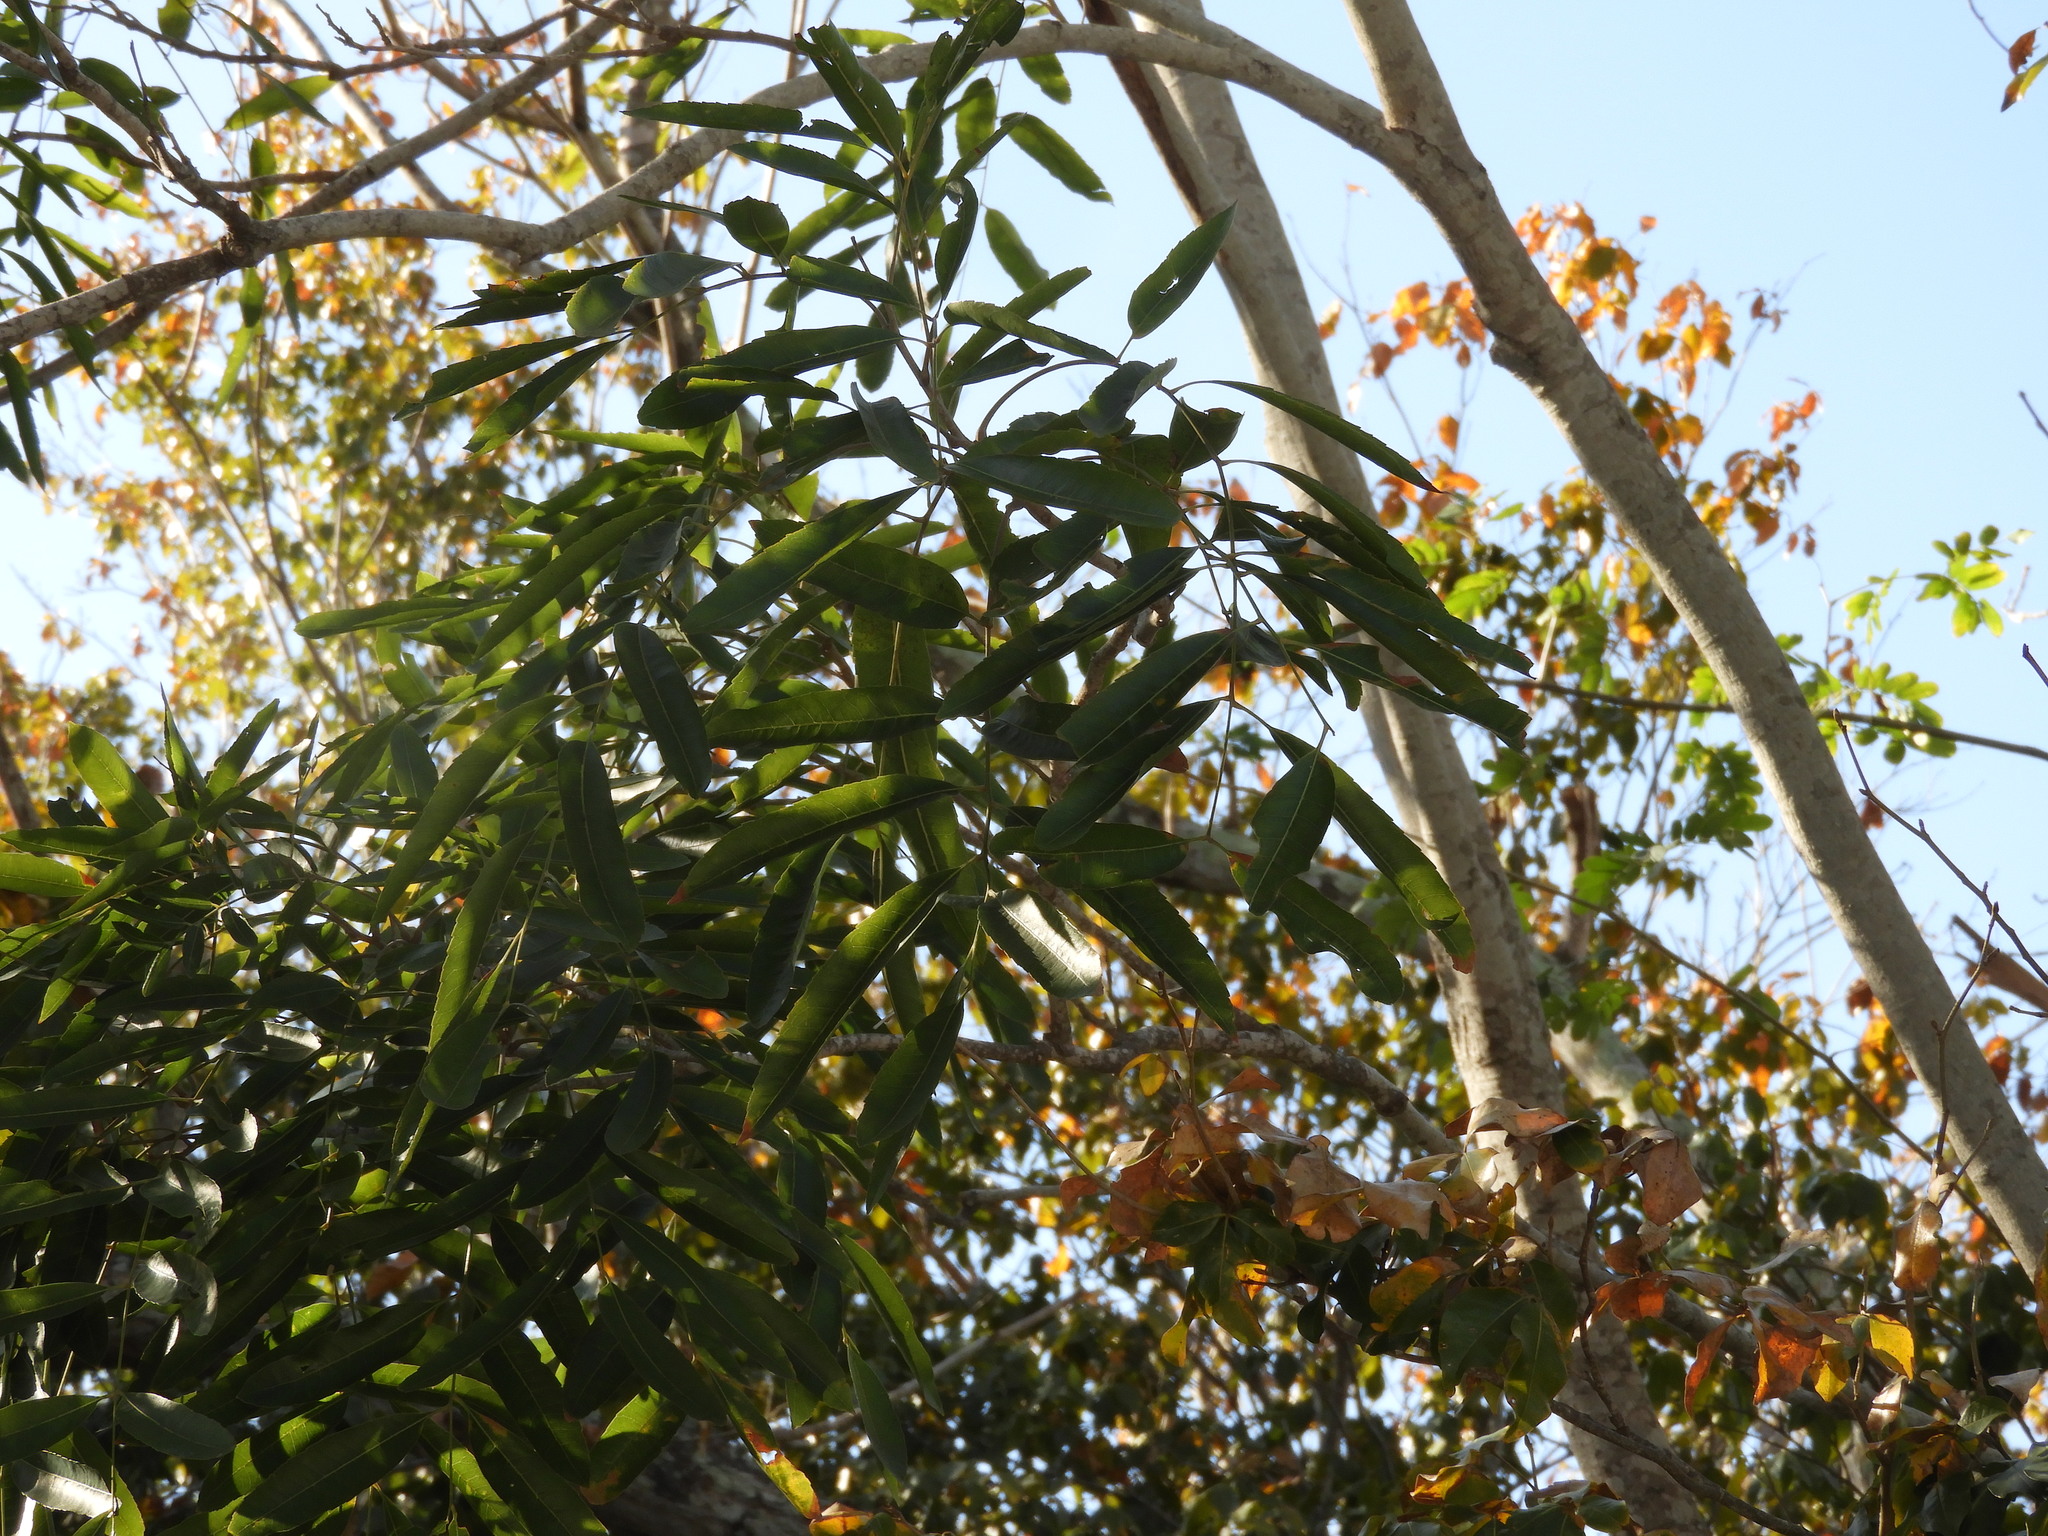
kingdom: Plantae
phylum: Tracheophyta
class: Magnoliopsida
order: Sapindales
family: Sapindaceae
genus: Thouinidium
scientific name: Thouinidium decandrum
